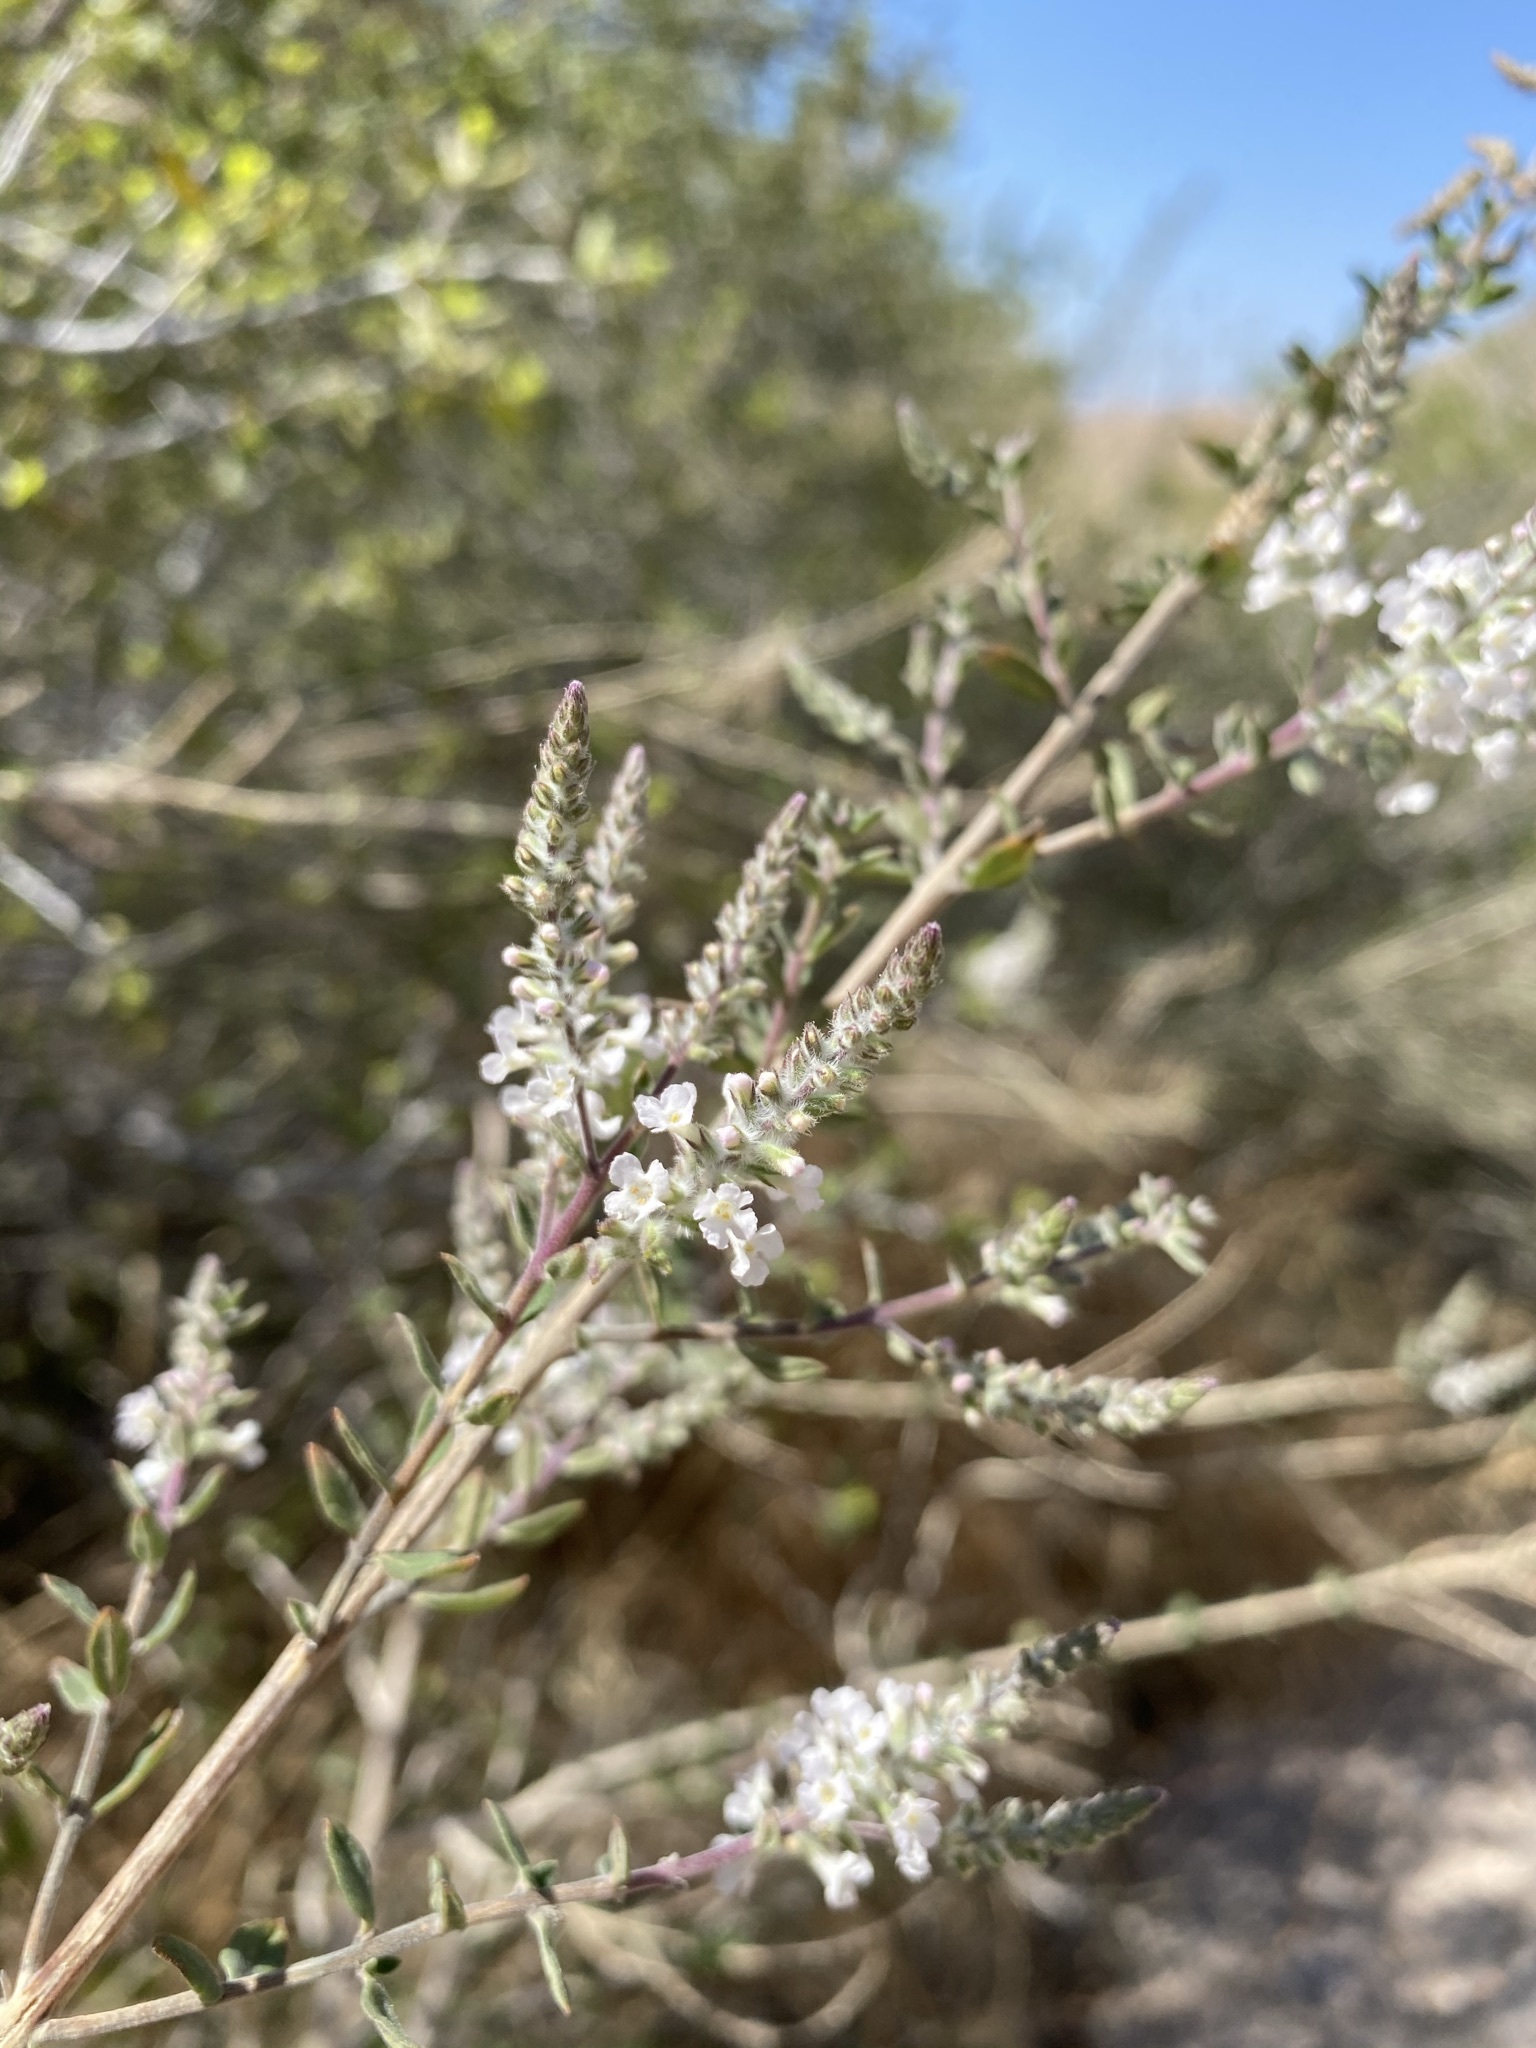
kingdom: Plantae
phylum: Tracheophyta
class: Magnoliopsida
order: Lamiales
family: Verbenaceae
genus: Aloysia
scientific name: Aloysia gratissima
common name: Common bee-brush
